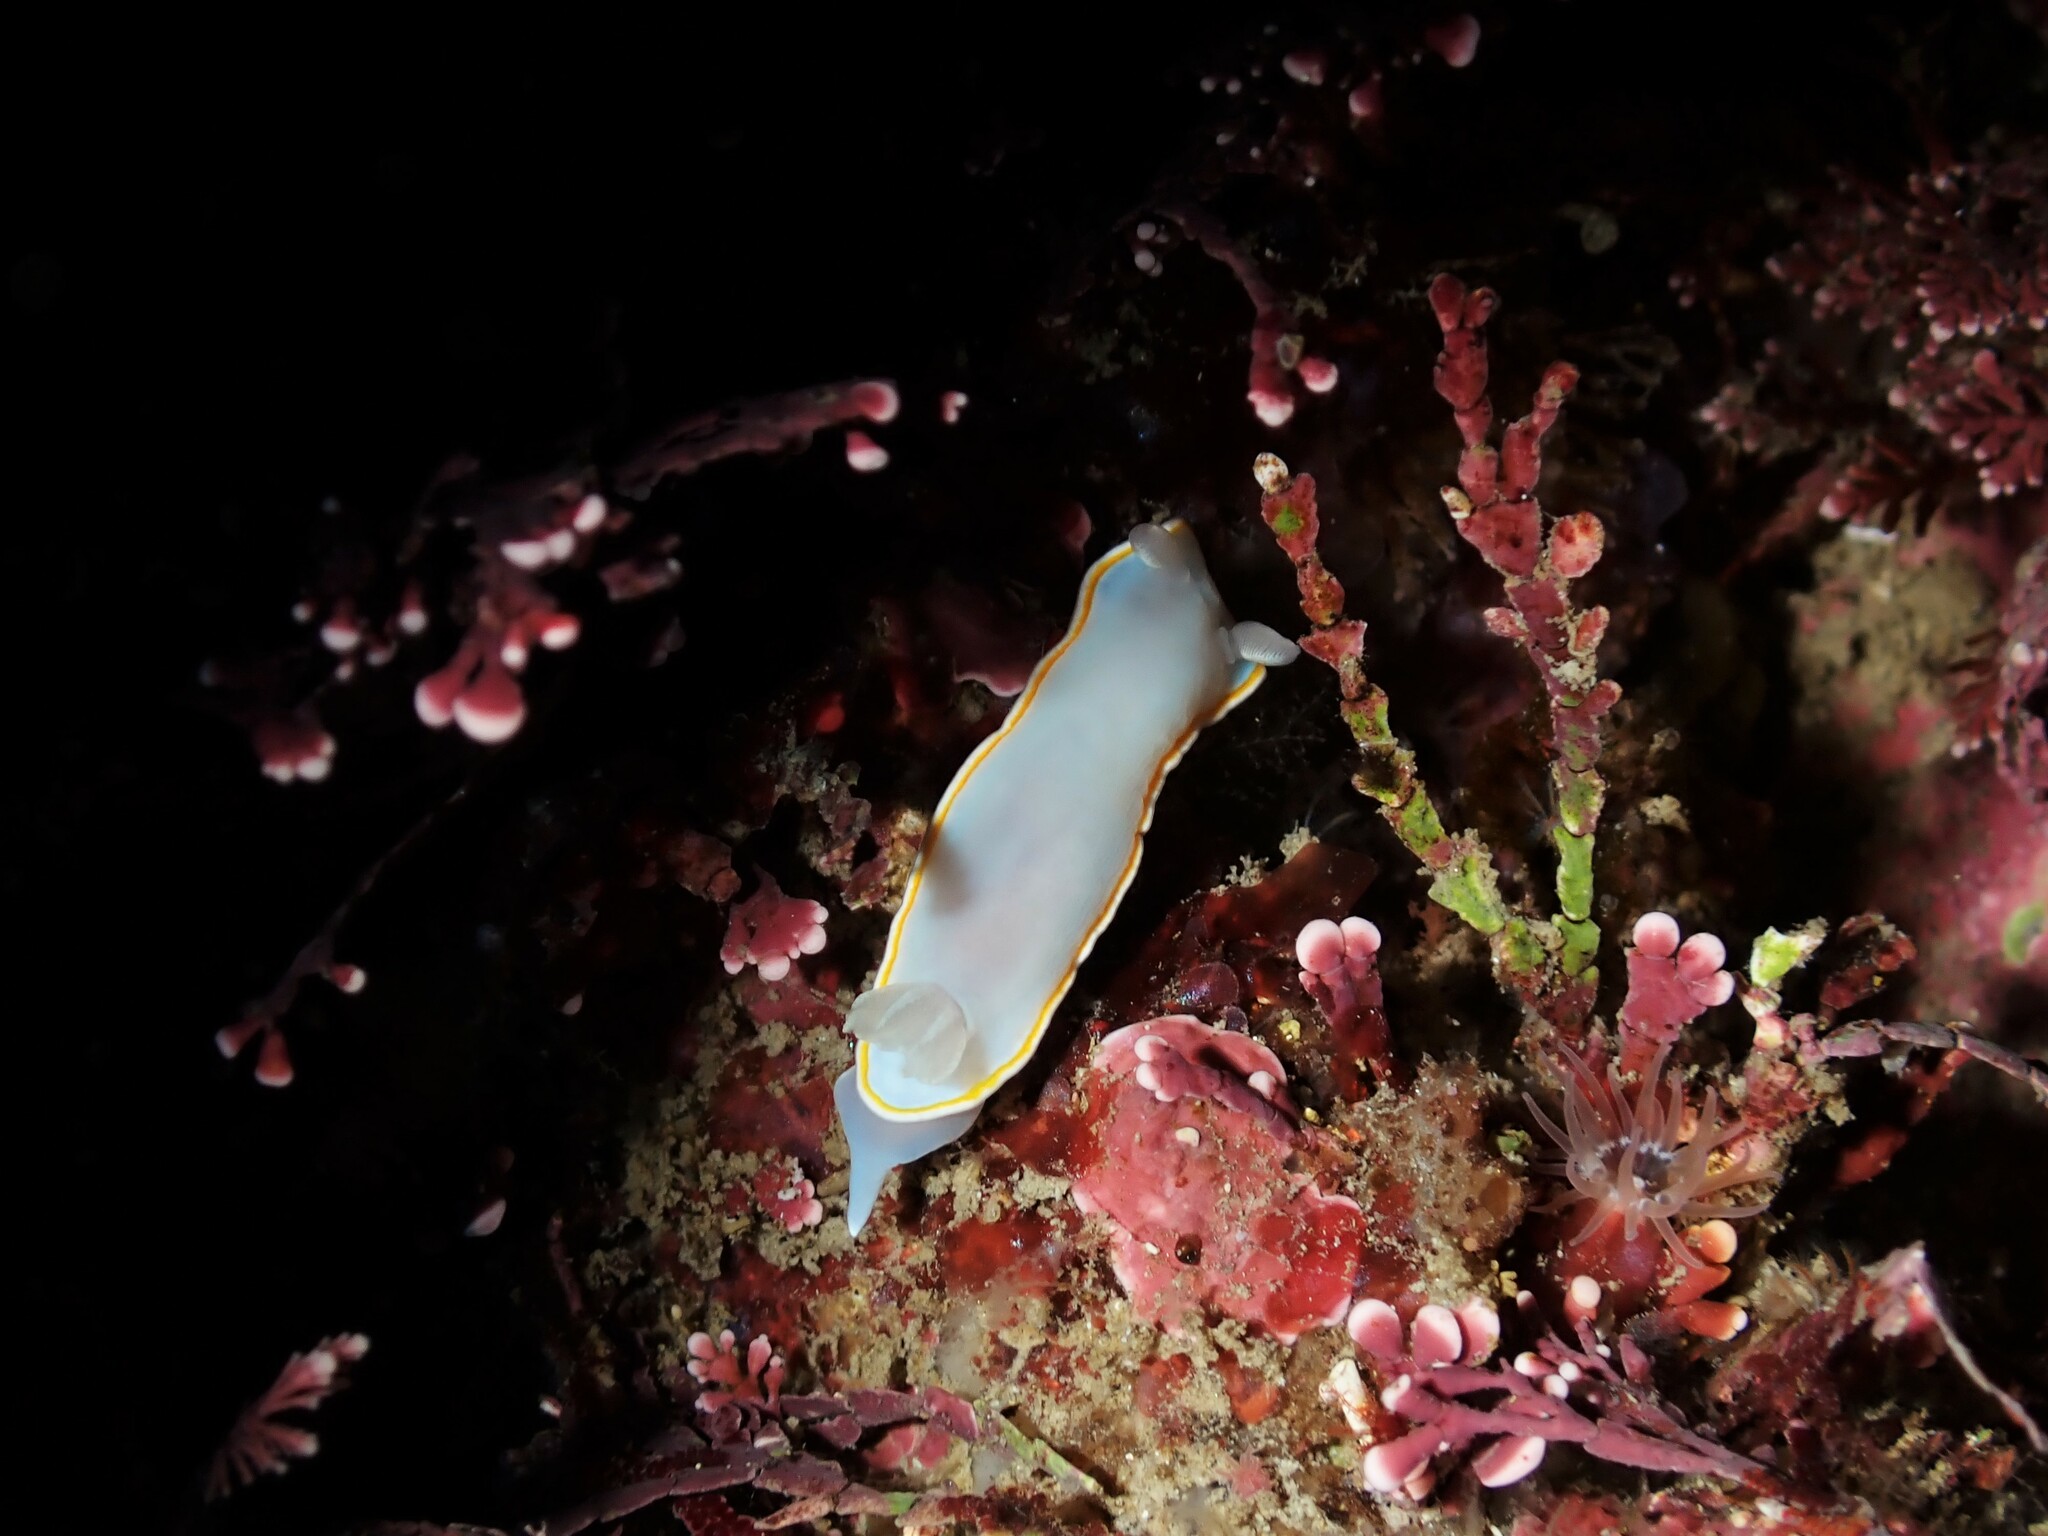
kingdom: Animalia
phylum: Mollusca
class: Gastropoda
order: Nudibranchia
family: Chromodorididae
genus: Goniobranchus
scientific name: Goniobranchus aureomarginatus
